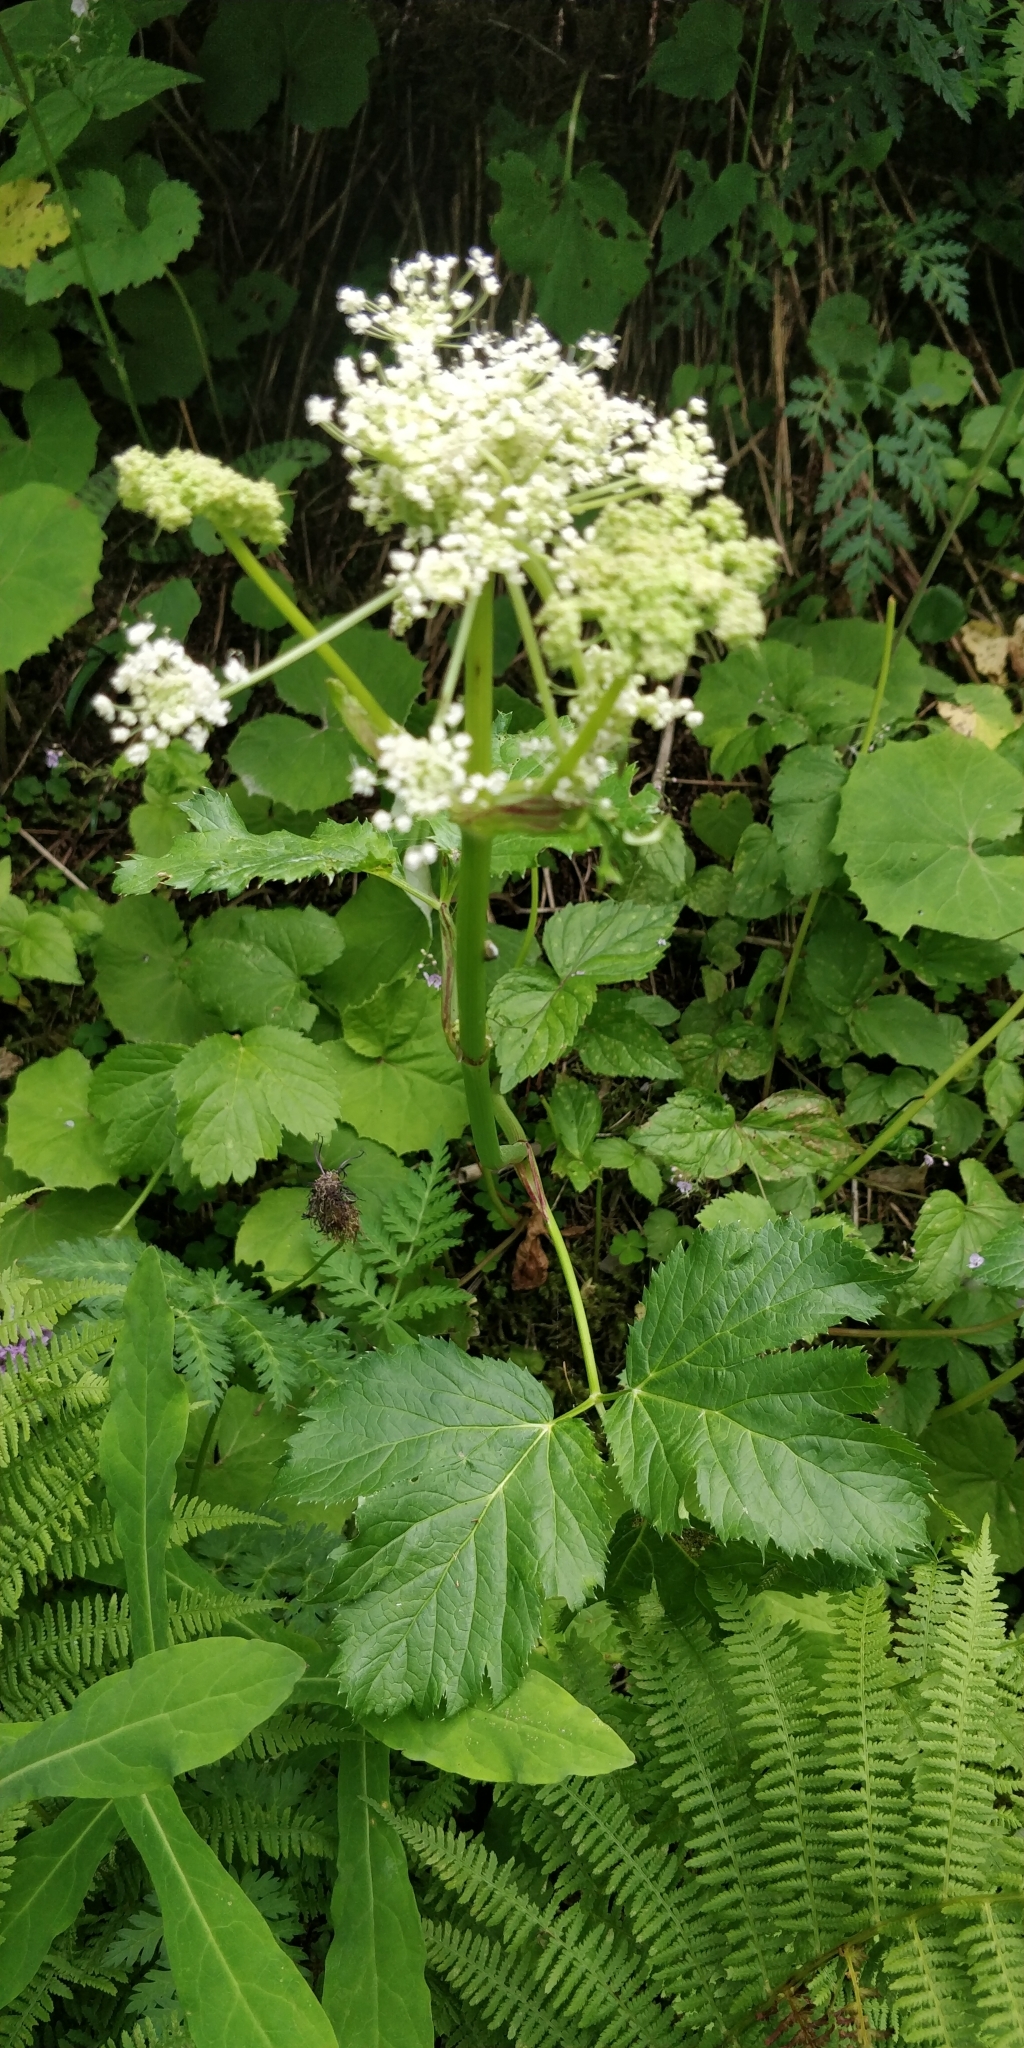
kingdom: Plantae
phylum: Tracheophyta
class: Magnoliopsida
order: Apiales
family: Apiaceae
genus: Imperatoria
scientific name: Imperatoria ostruthium
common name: Masterwort
